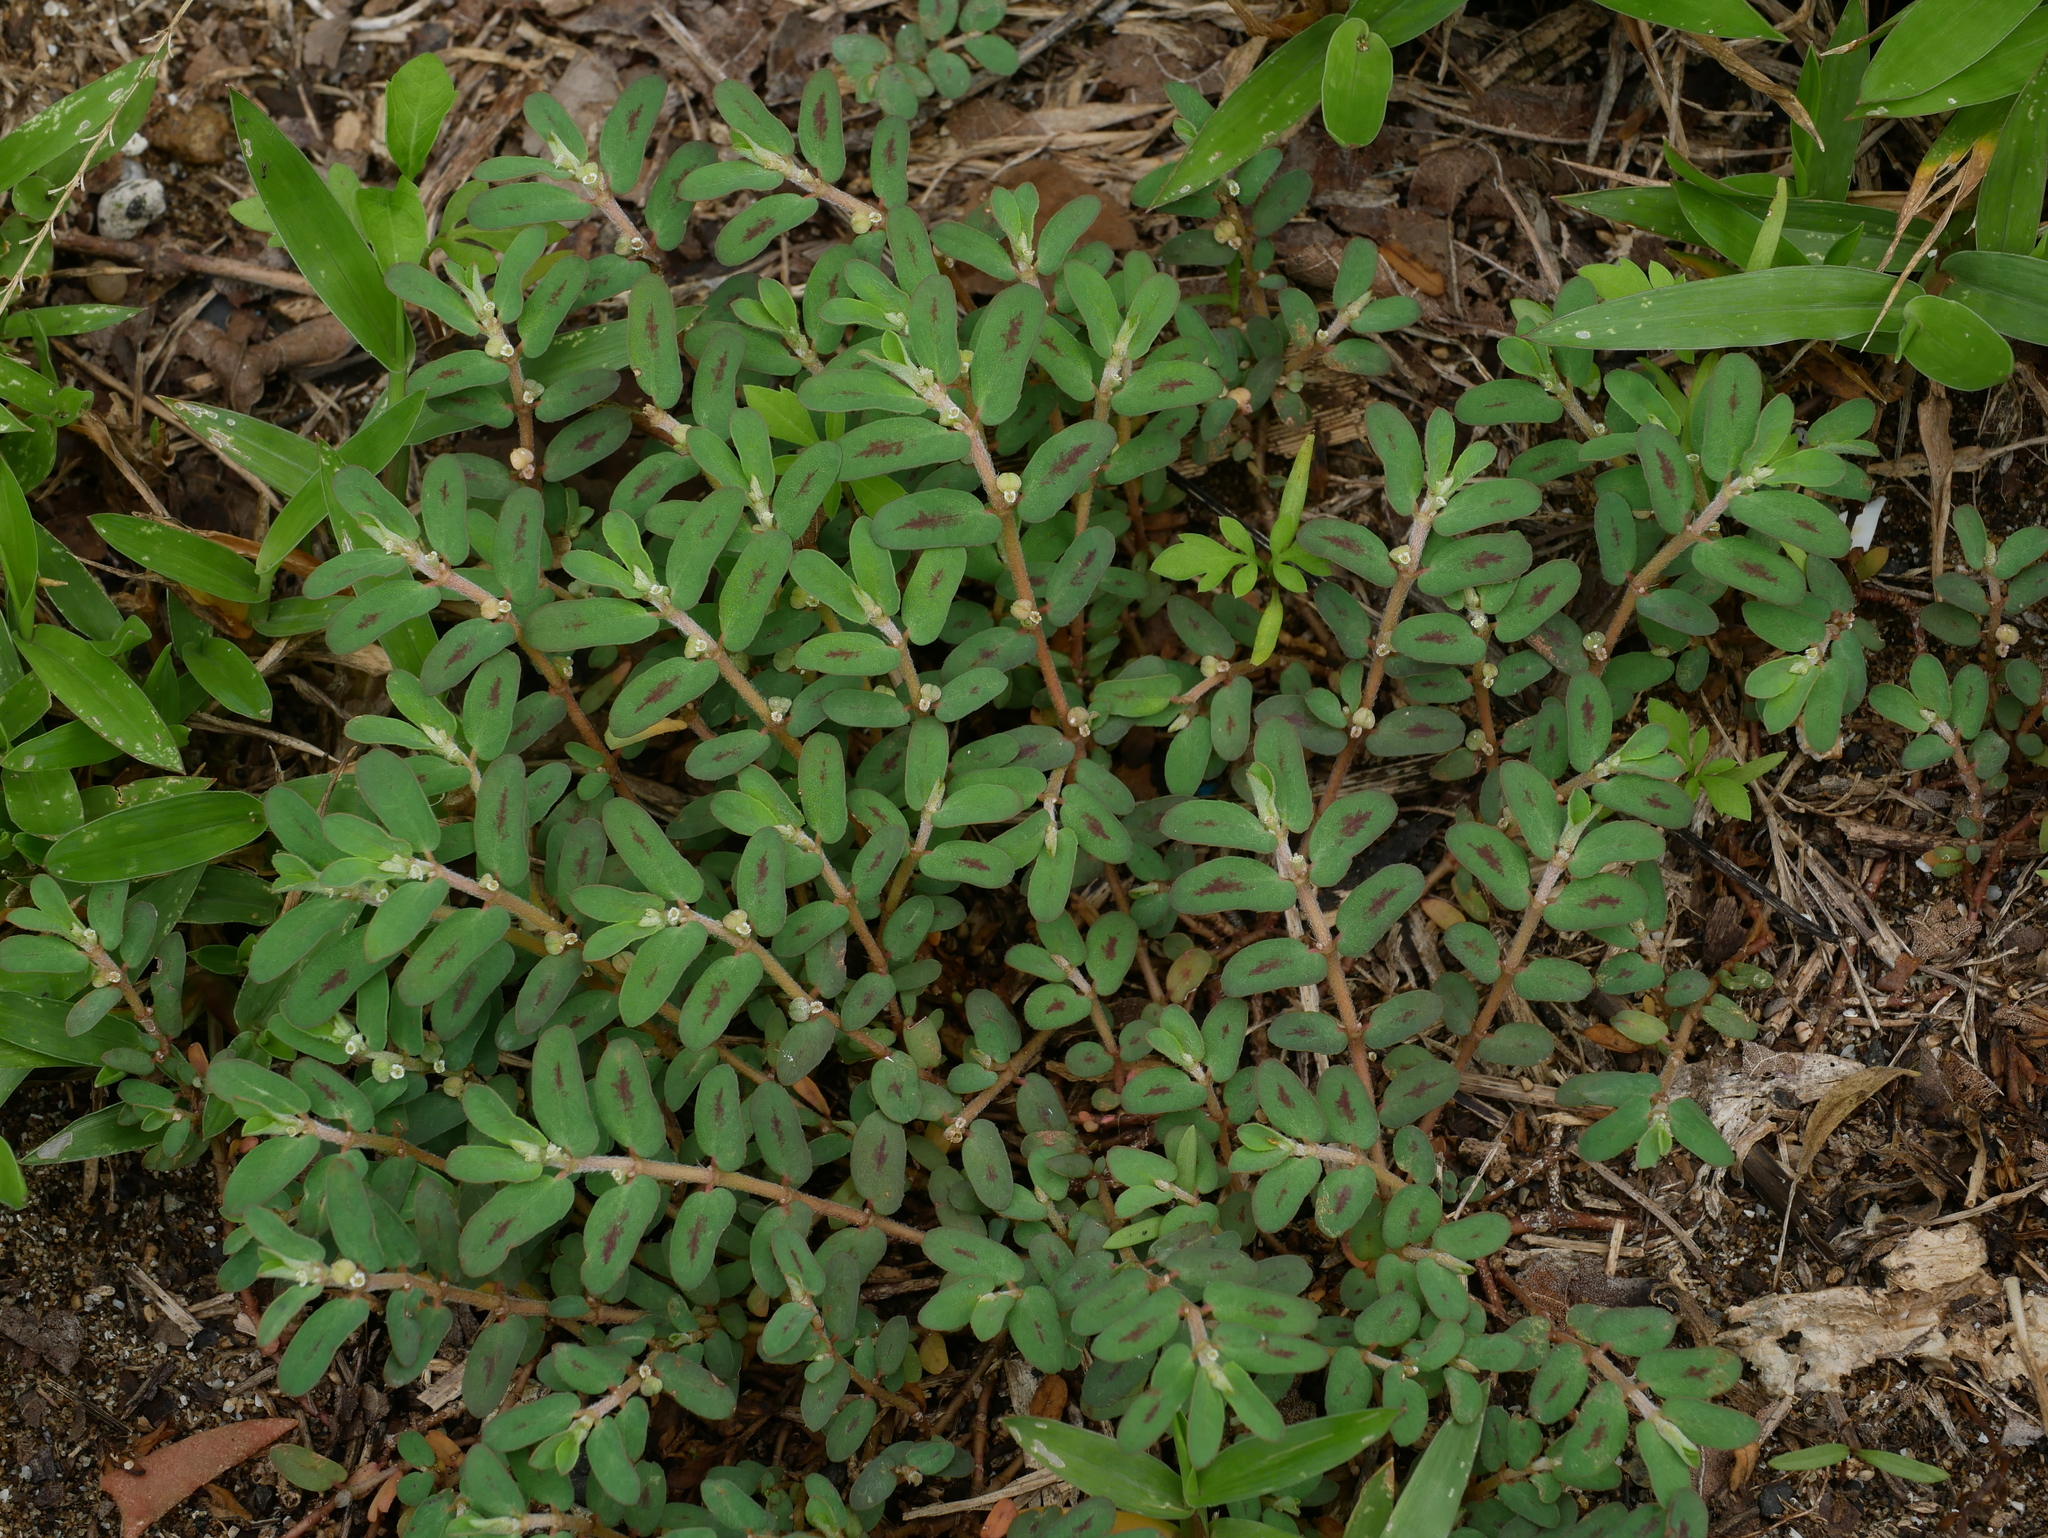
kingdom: Plantae
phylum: Tracheophyta
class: Magnoliopsida
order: Malpighiales
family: Euphorbiaceae
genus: Euphorbia
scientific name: Euphorbia maculata
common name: Spotted spurge
